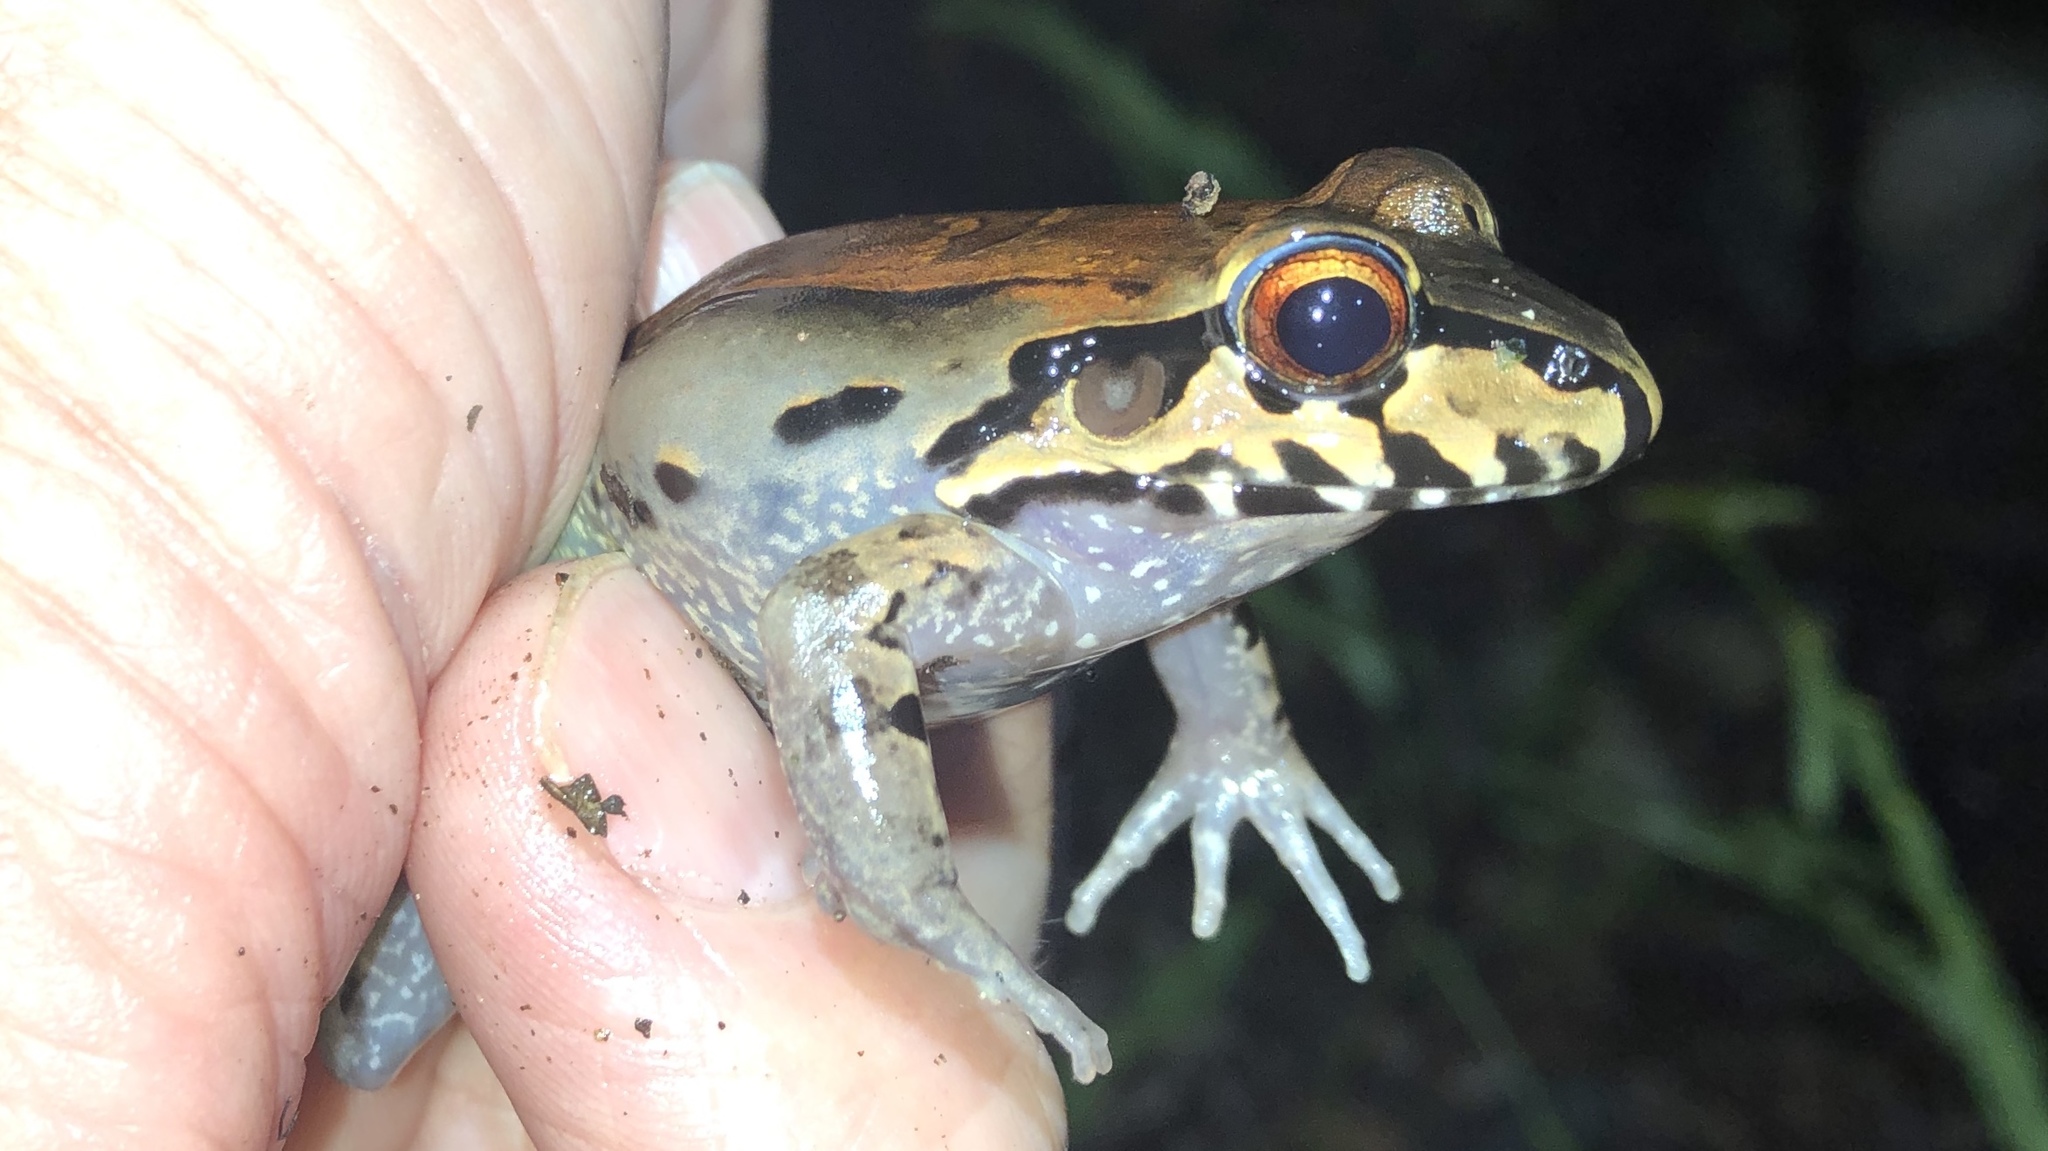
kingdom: Animalia
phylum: Chordata
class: Amphibia
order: Anura
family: Leptodactylidae
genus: Leptodactylus
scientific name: Leptodactylus savagei
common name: Savage's thin-toed frog
